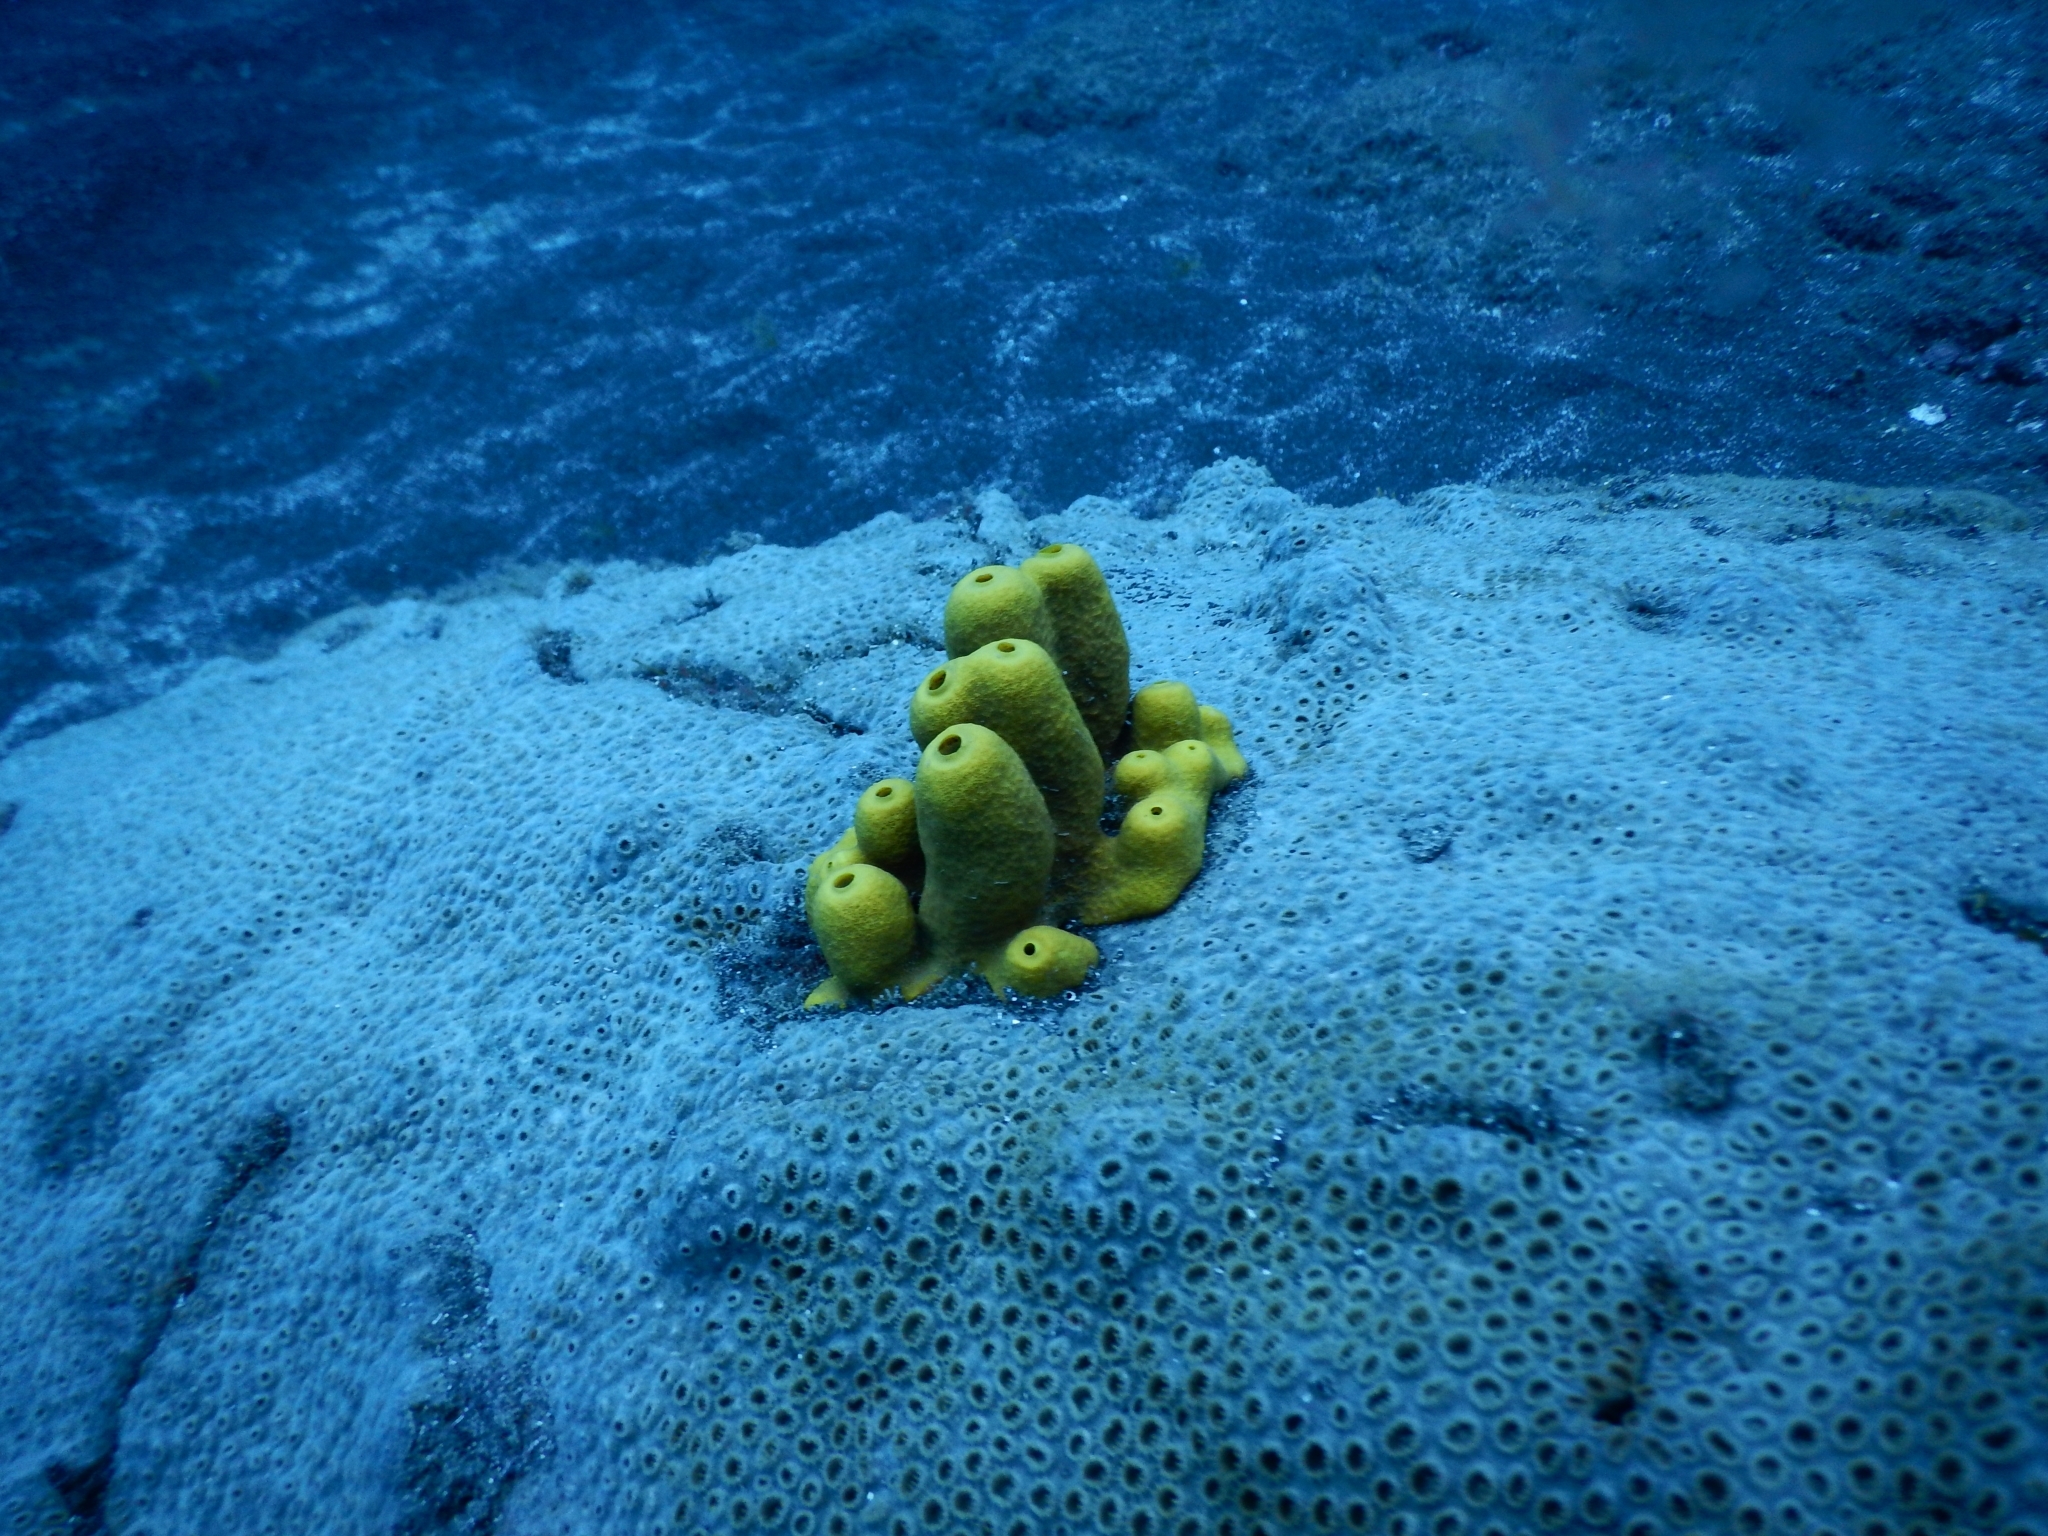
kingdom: Animalia
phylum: Porifera
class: Demospongiae
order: Verongiida
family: Aplysinidae
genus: Aplysina
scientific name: Aplysina aerophoba
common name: Aureate sponge
